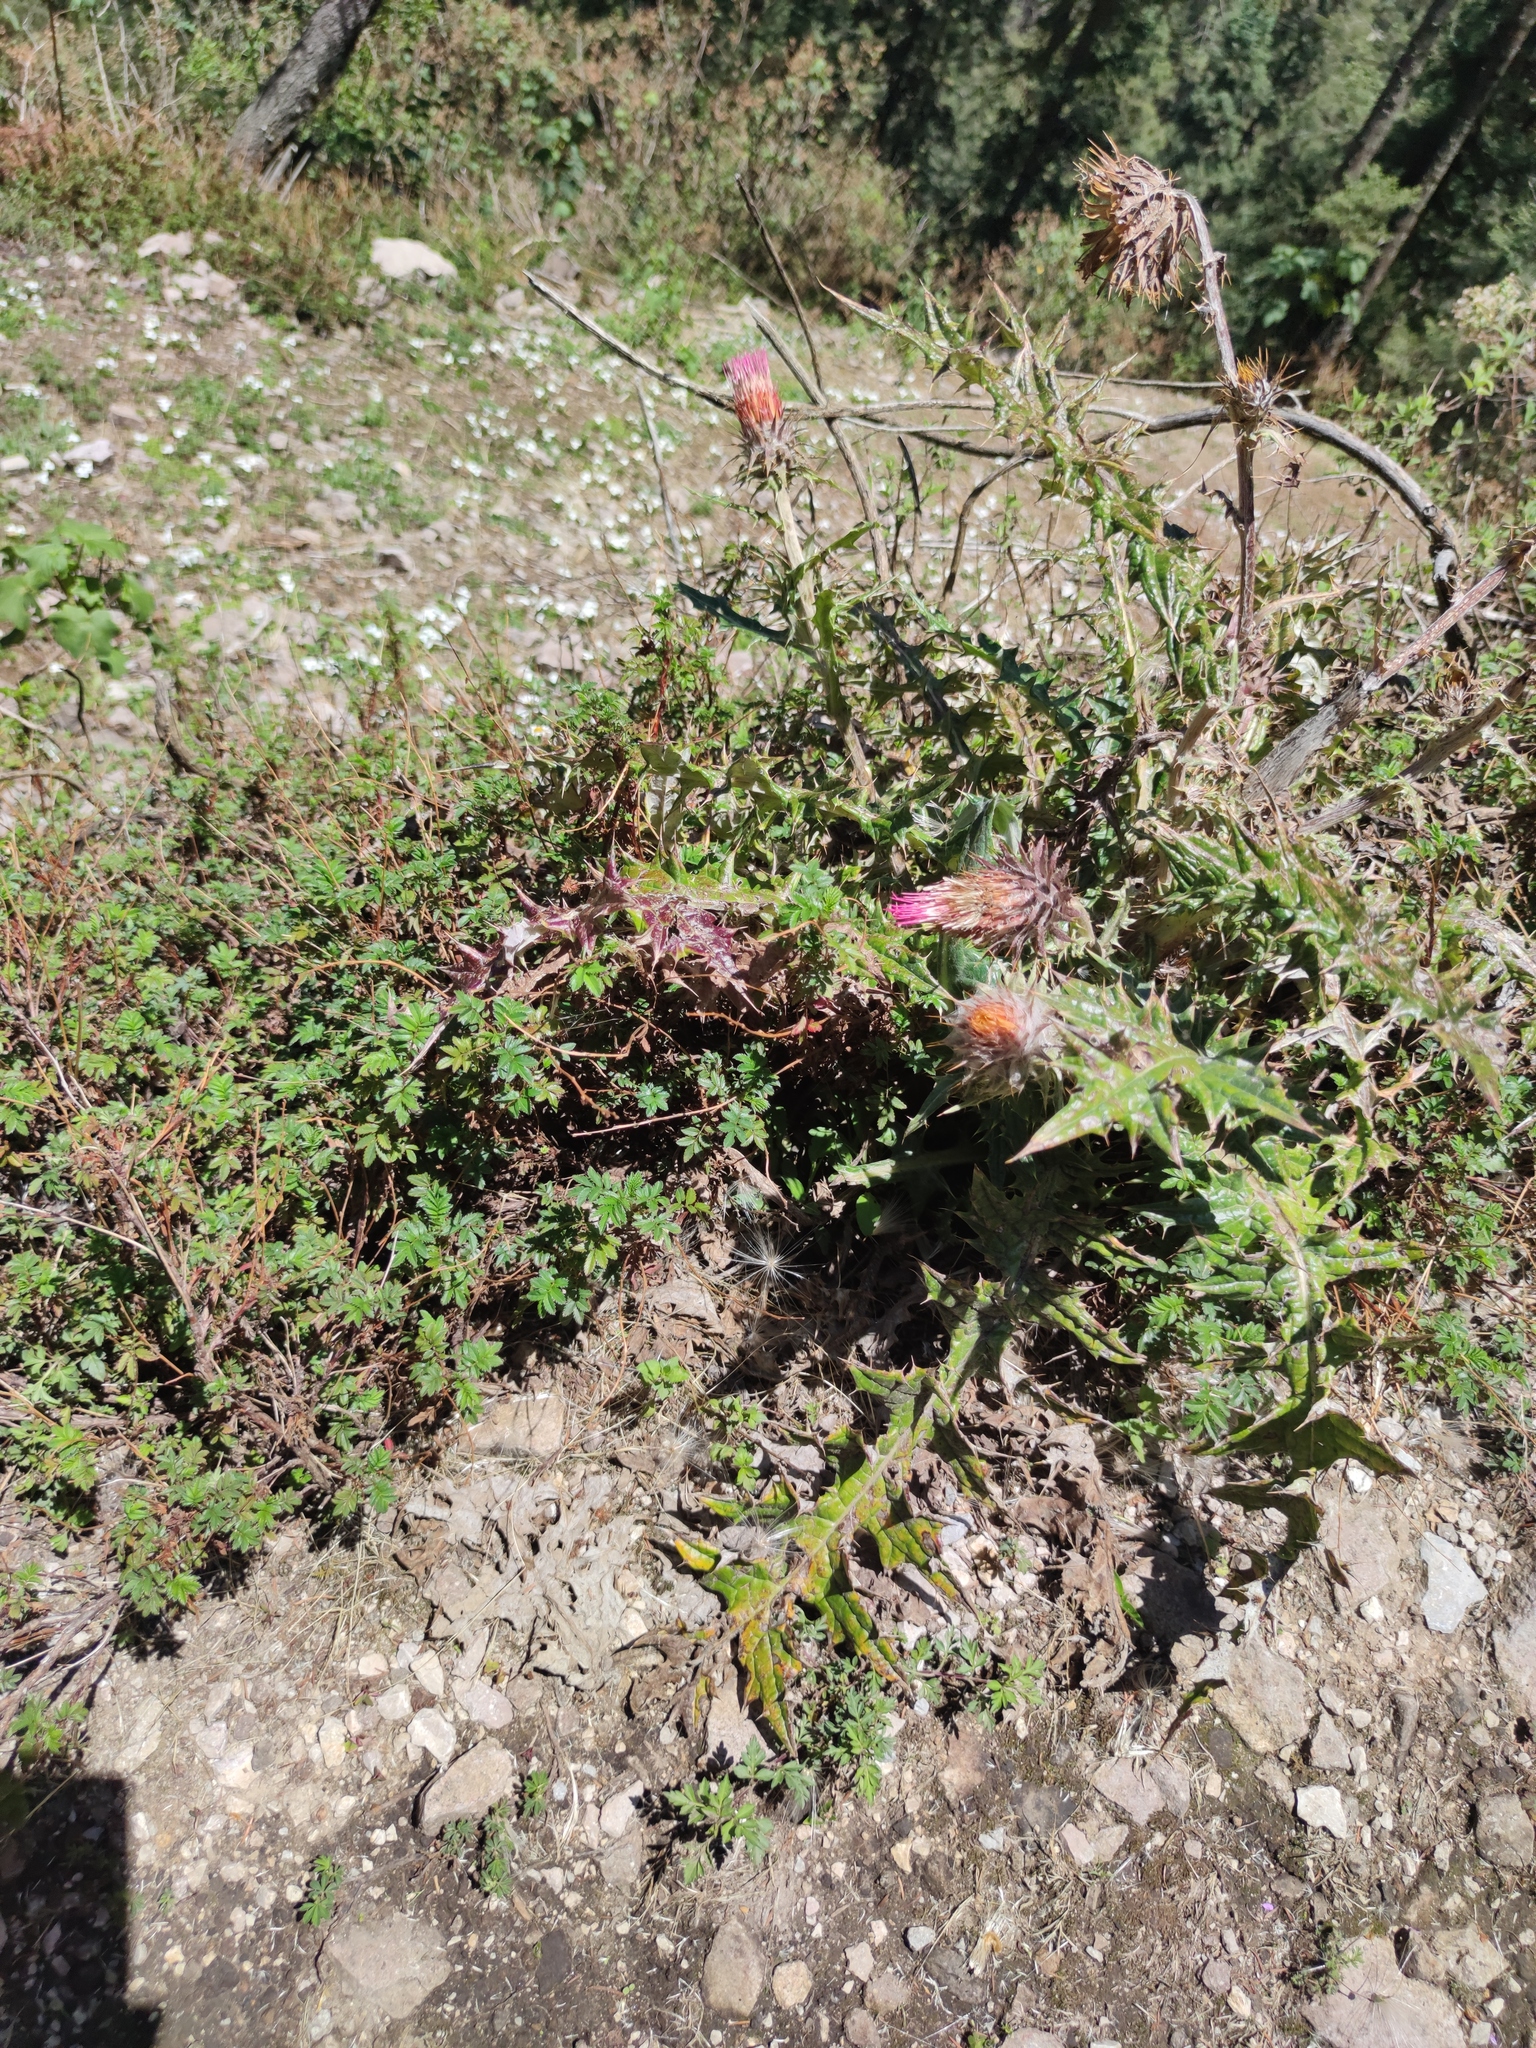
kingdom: Plantae
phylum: Tracheophyta
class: Magnoliopsida
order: Asterales
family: Asteraceae
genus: Cirsium
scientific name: Cirsium ehrenbergii
